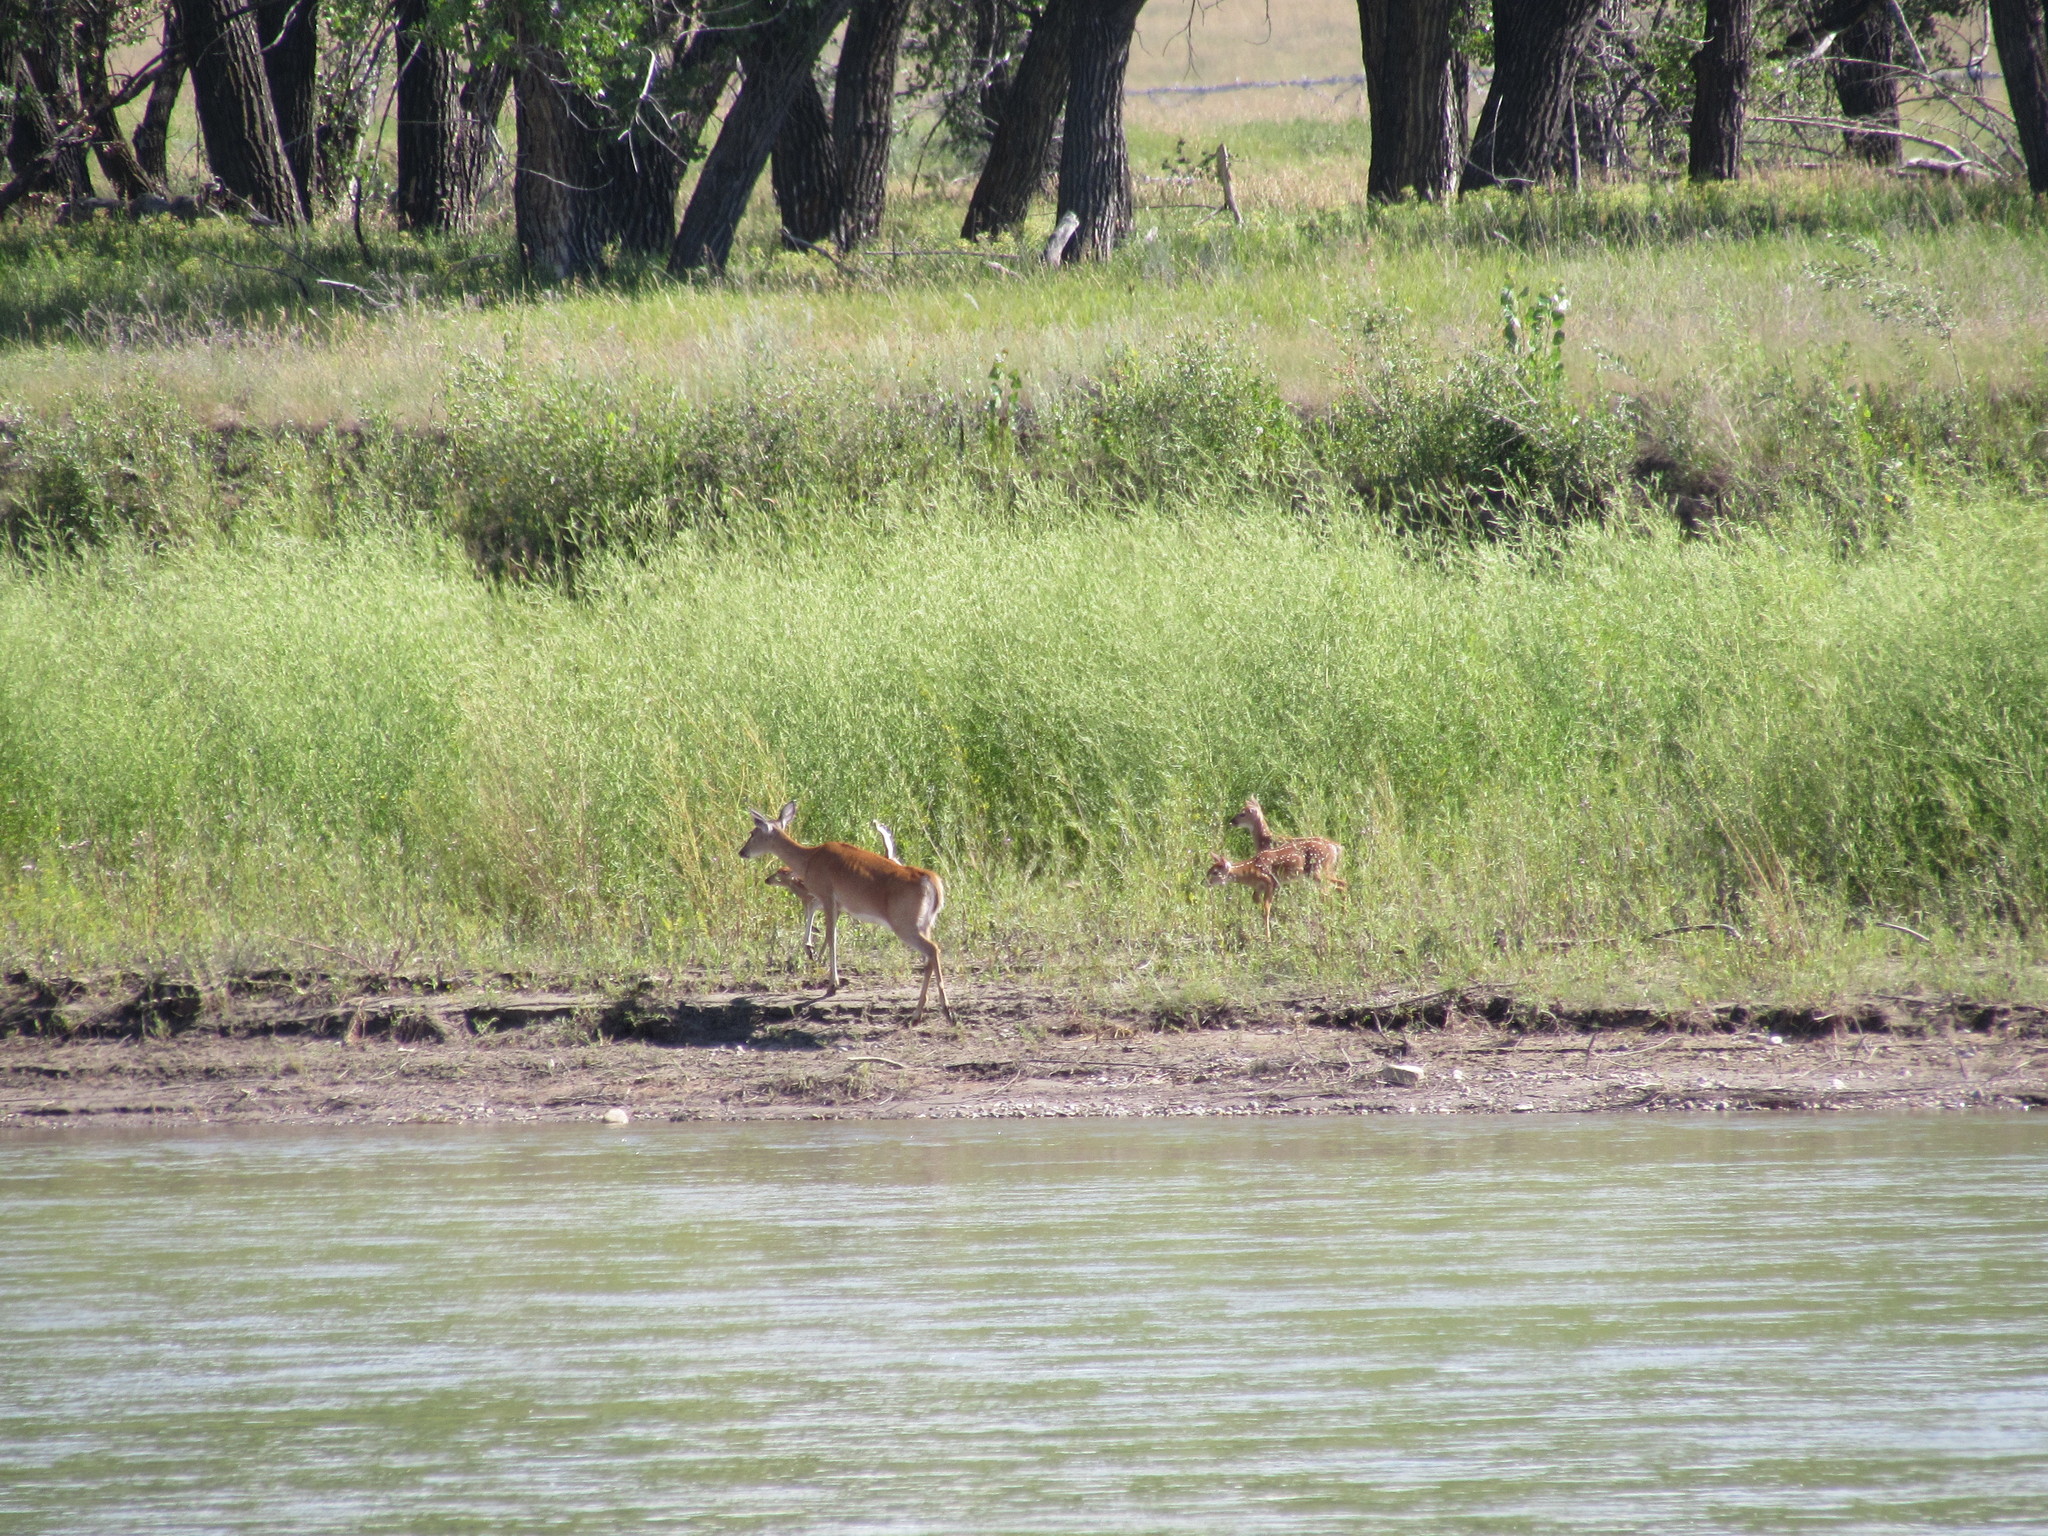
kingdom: Animalia
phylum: Chordata
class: Mammalia
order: Artiodactyla
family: Cervidae
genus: Odocoileus
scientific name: Odocoileus virginianus
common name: White-tailed deer
